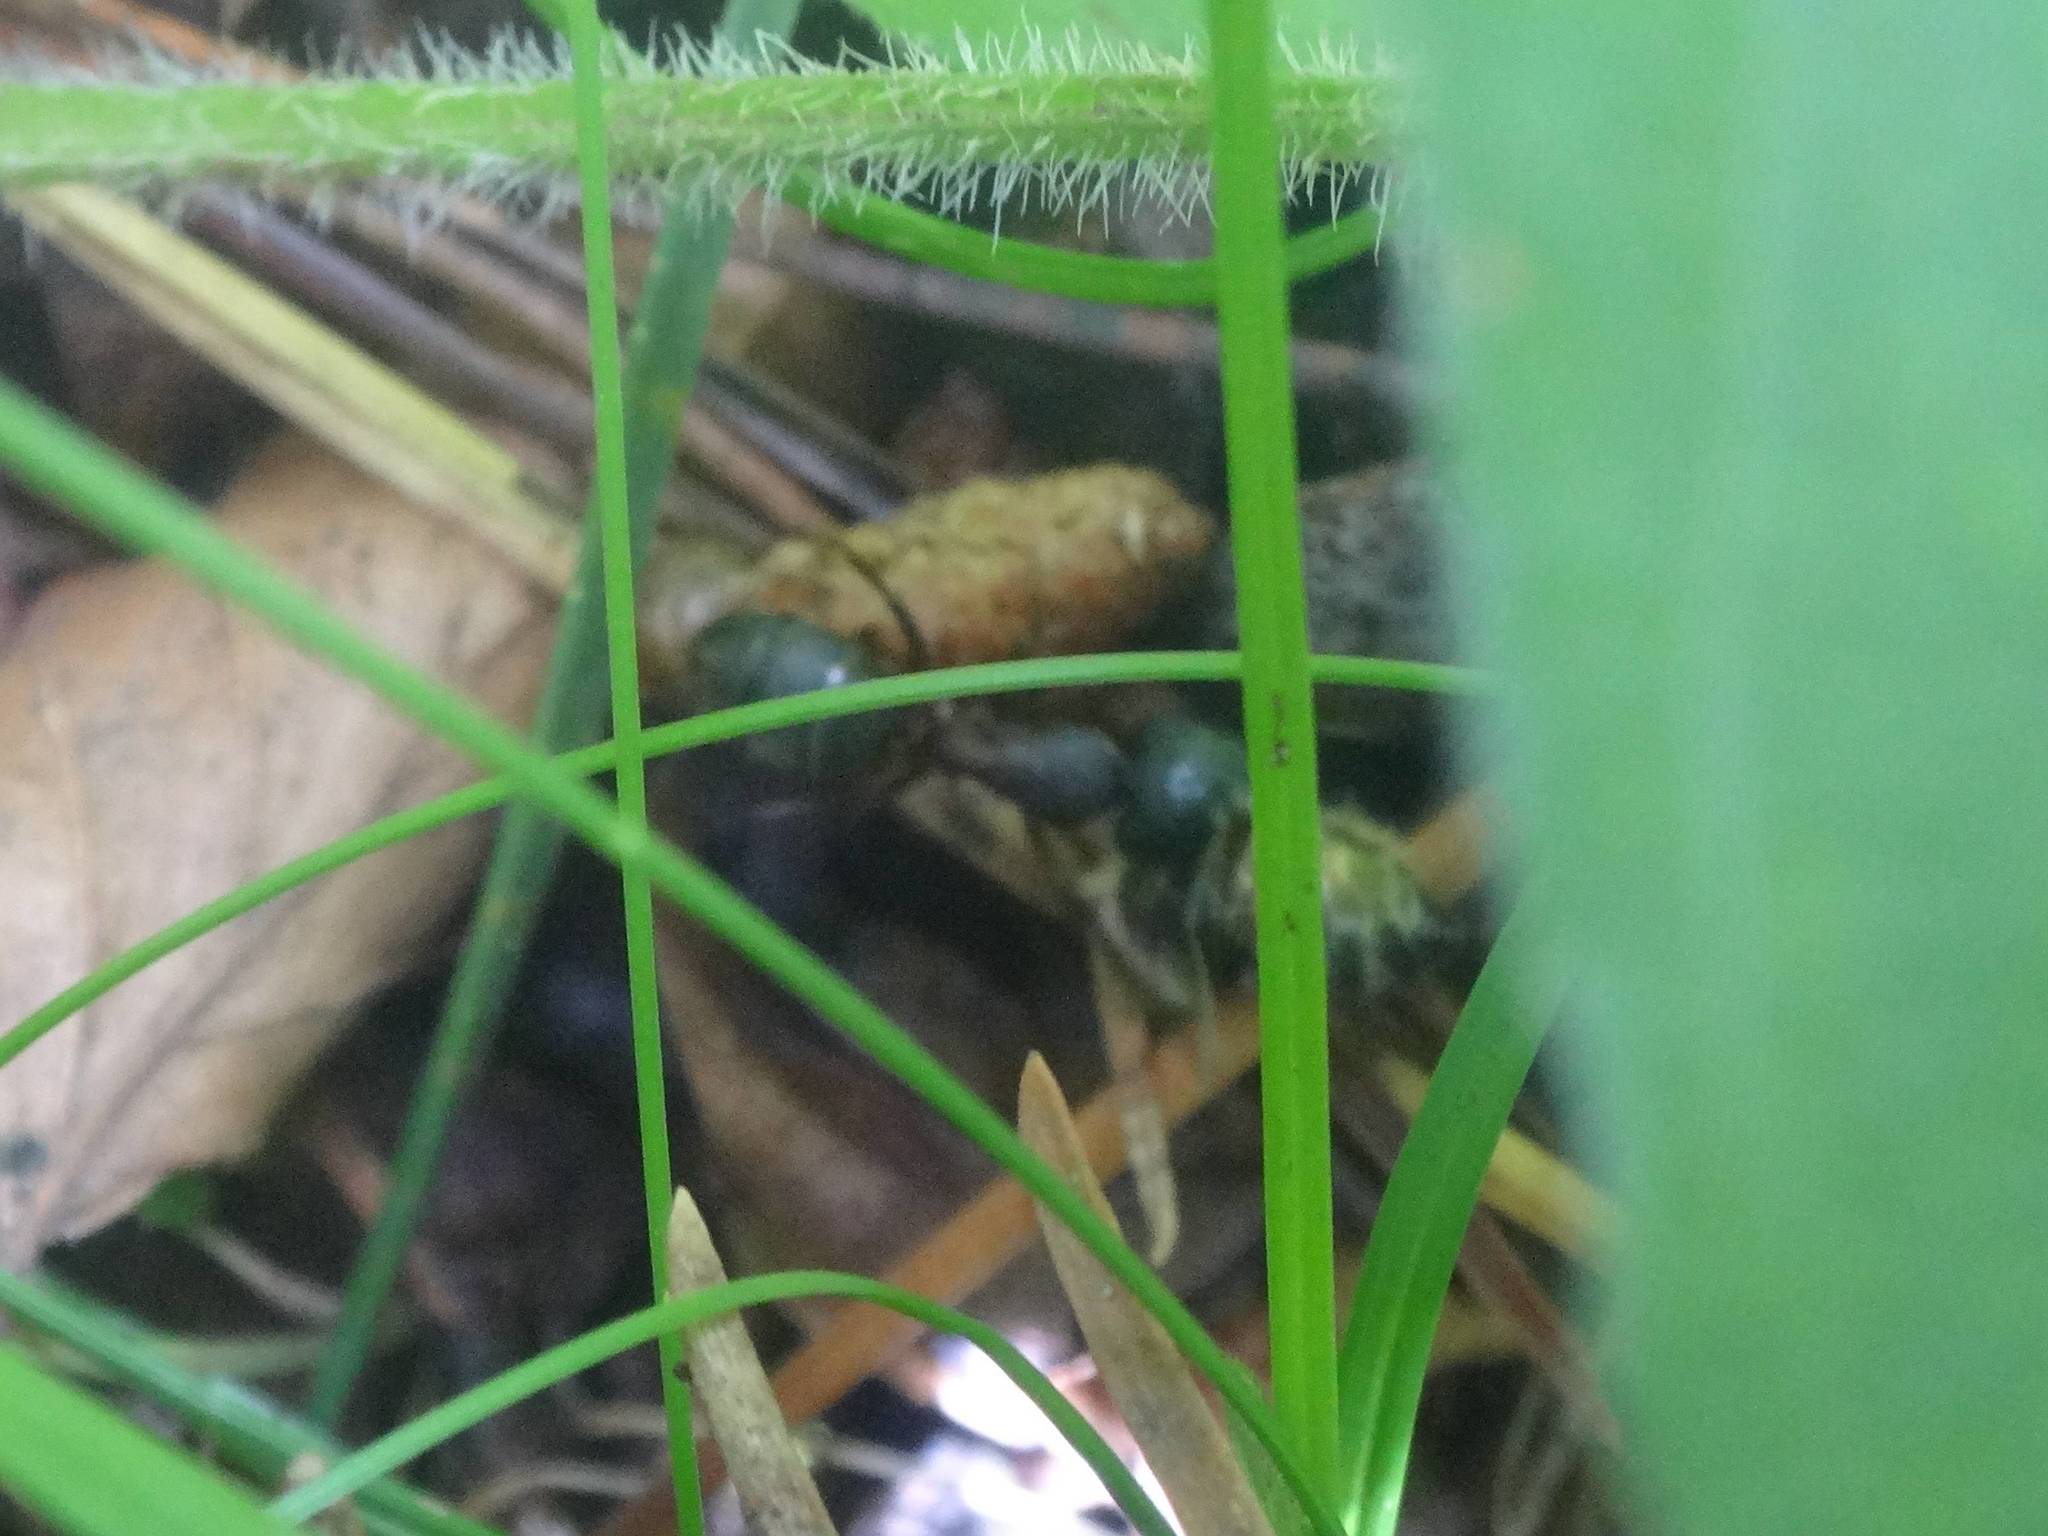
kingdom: Animalia
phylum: Arthropoda
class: Insecta
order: Hymenoptera
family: Formicidae
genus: Camponotus
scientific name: Camponotus herculeanus
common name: Hercules ant
